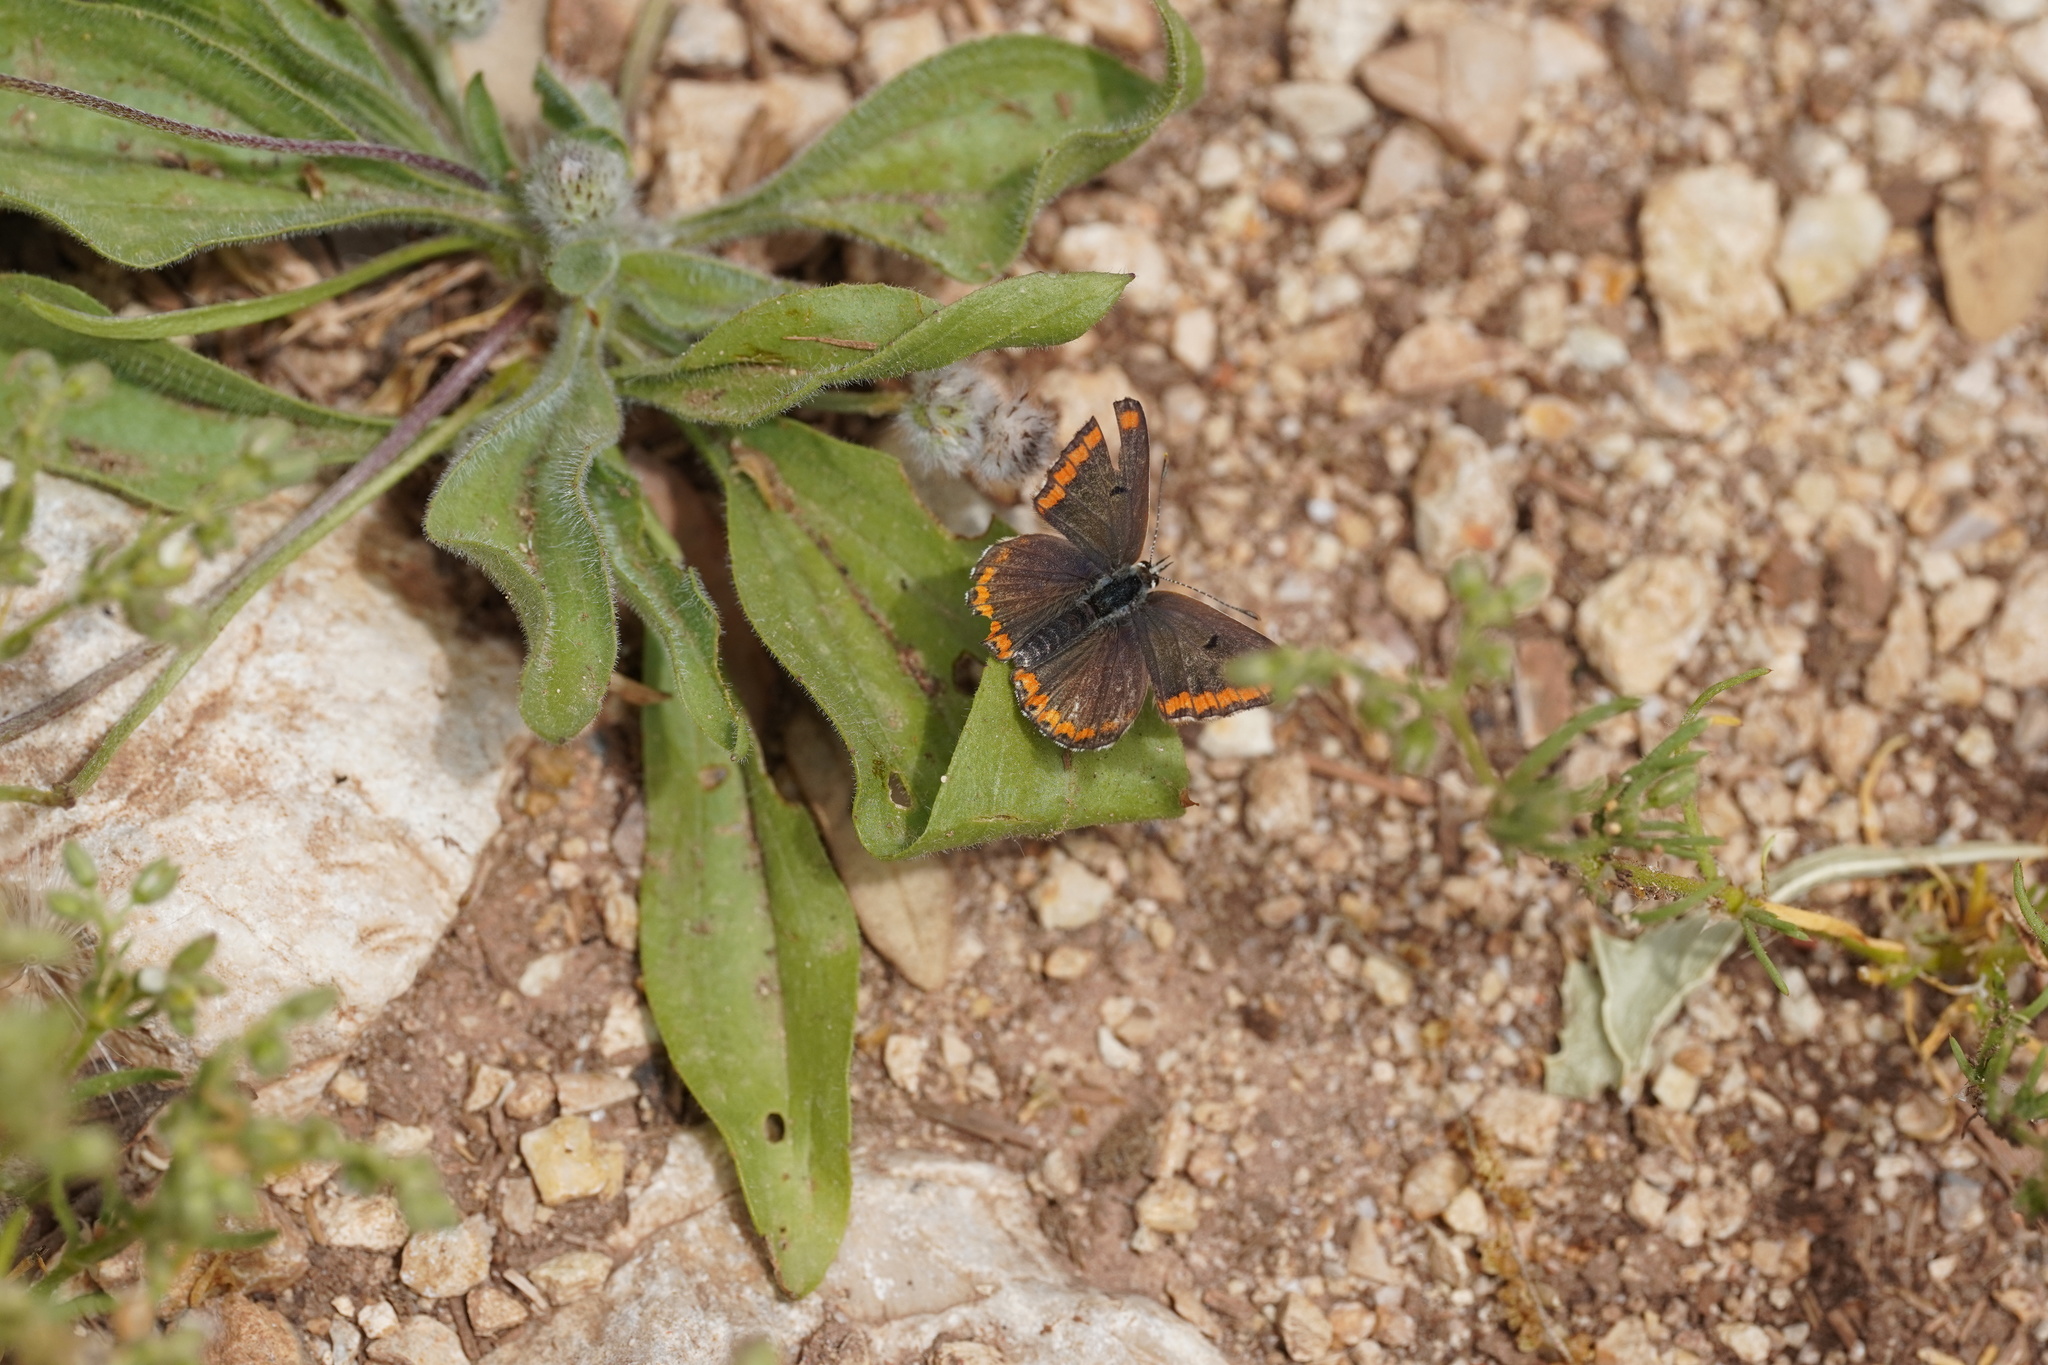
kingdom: Animalia
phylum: Arthropoda
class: Insecta
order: Lepidoptera
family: Lycaenidae
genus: Aricia
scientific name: Aricia cramera
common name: Eschscholtz´s brown  argus
